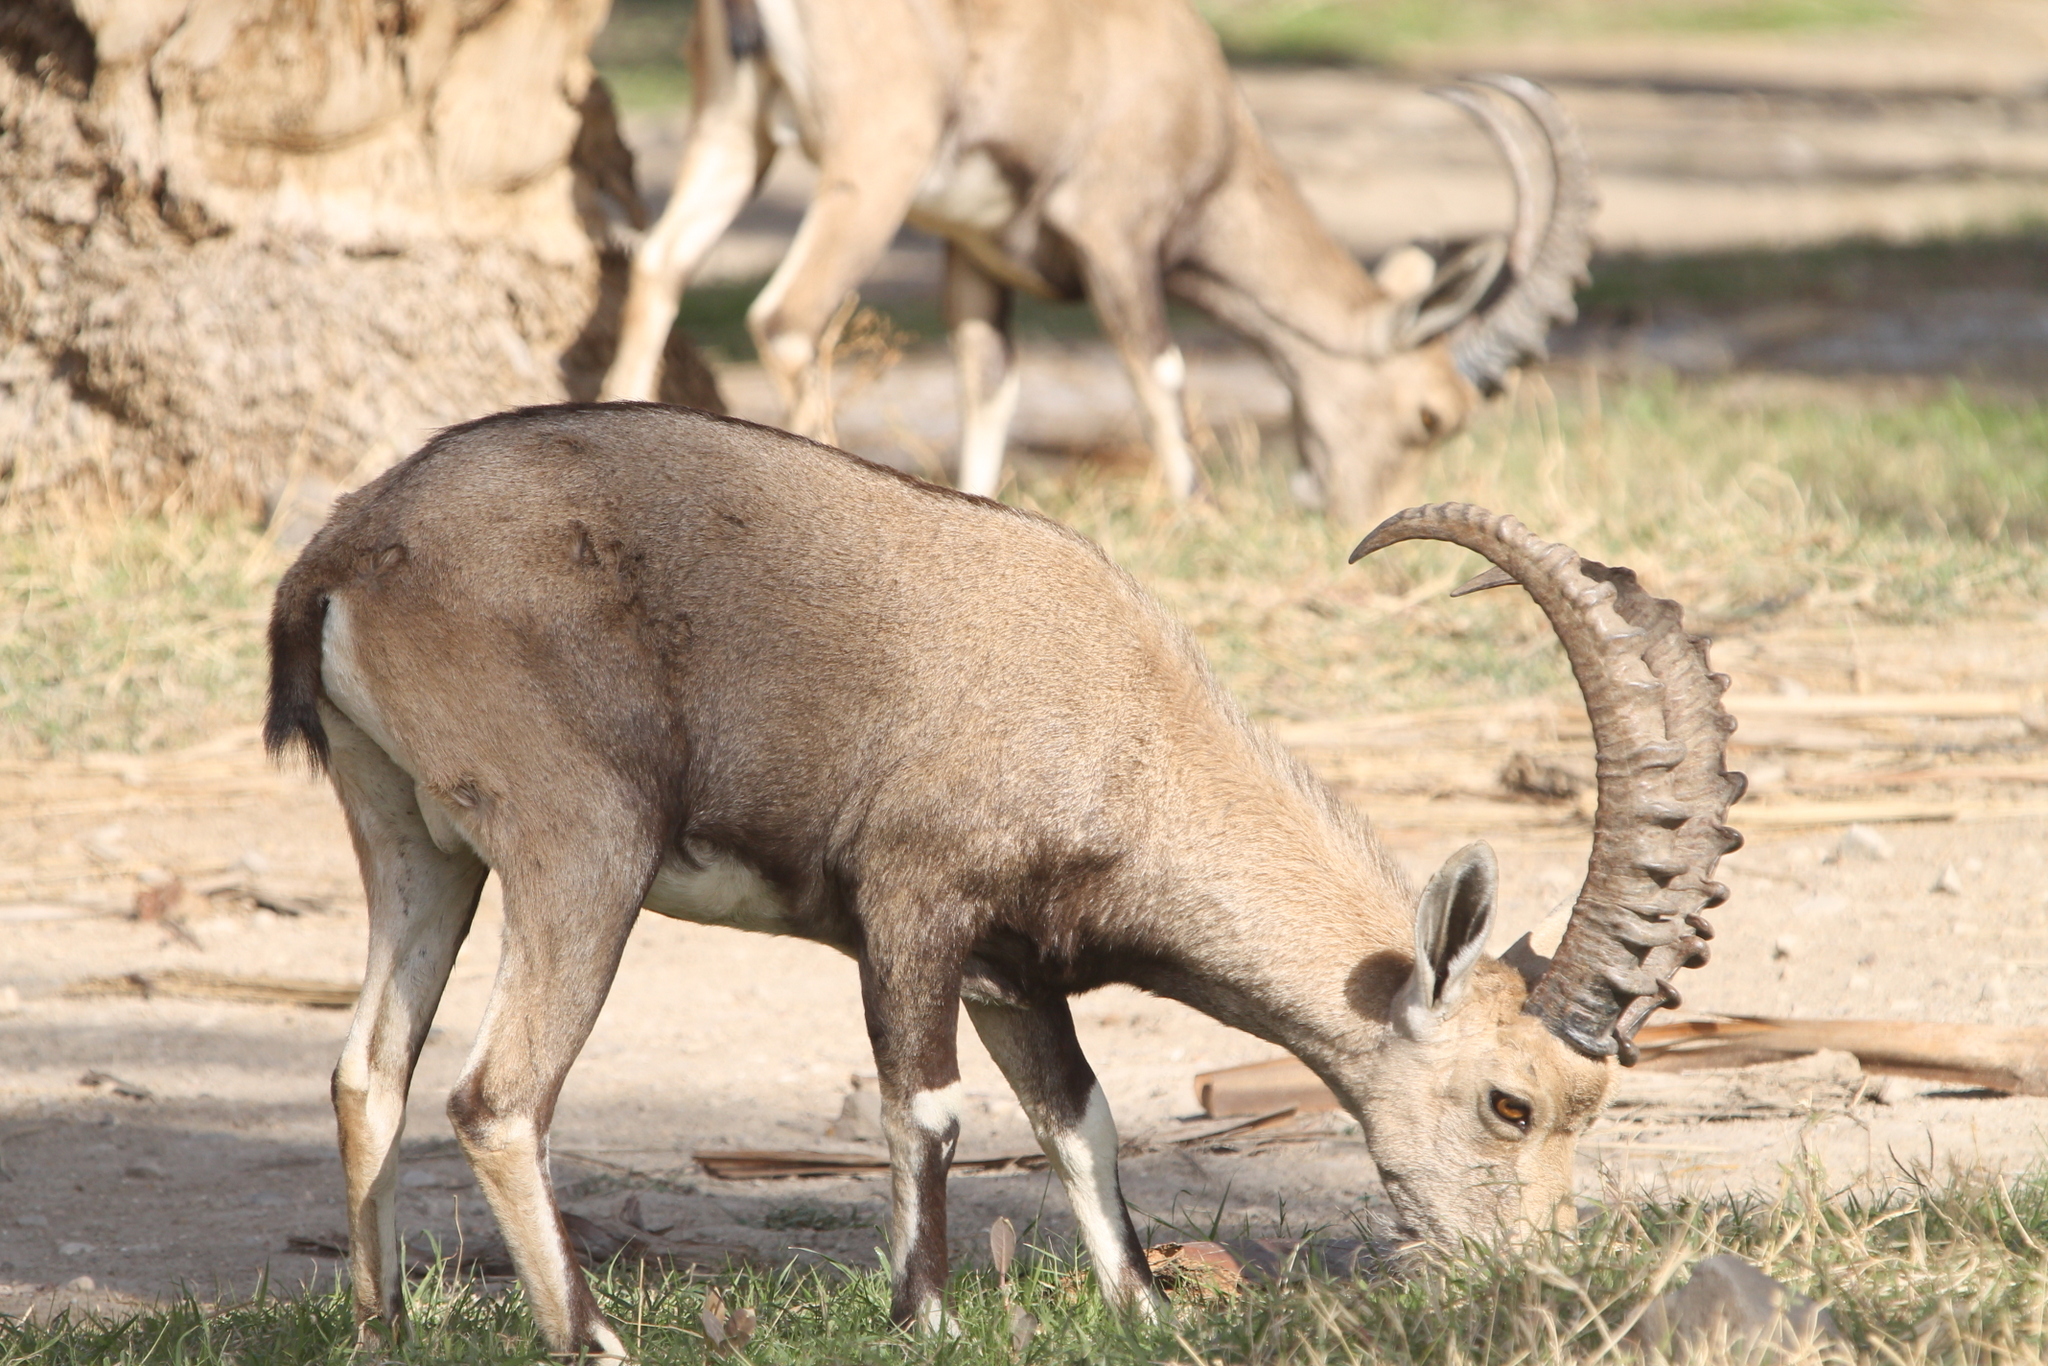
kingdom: Animalia
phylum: Chordata
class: Mammalia
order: Artiodactyla
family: Bovidae
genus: Capra
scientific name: Capra nubiana
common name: Nubian ibex
